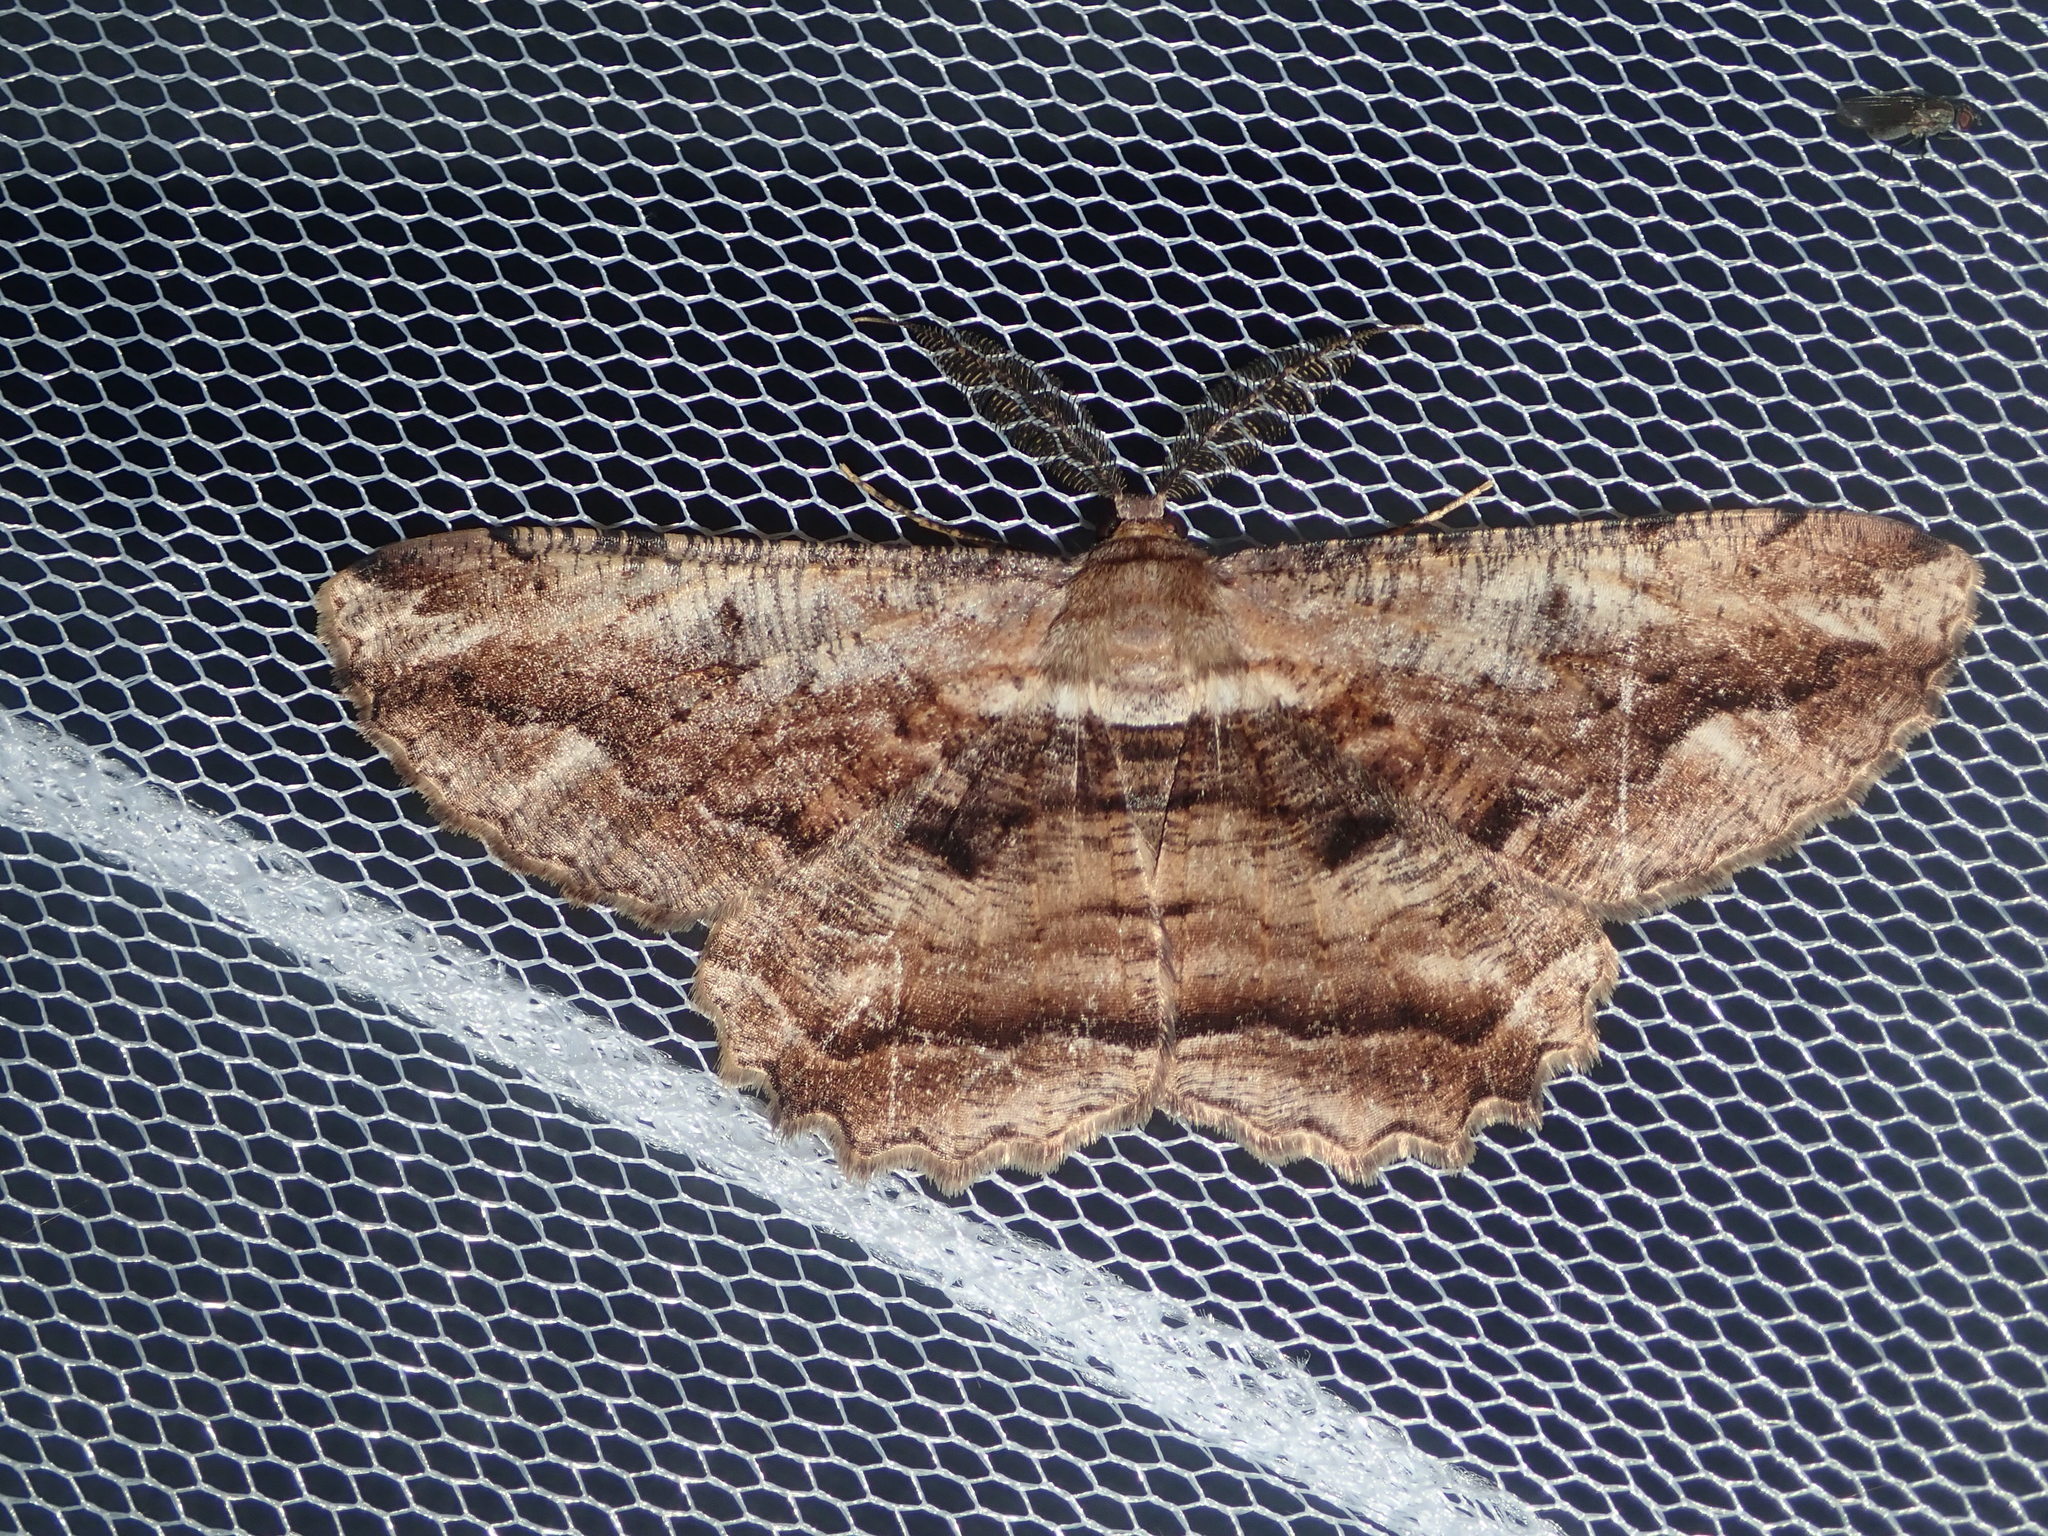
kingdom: Animalia
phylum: Arthropoda
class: Insecta
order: Lepidoptera
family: Geometridae
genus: Scioglyptis
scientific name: Scioglyptis lyciaria
